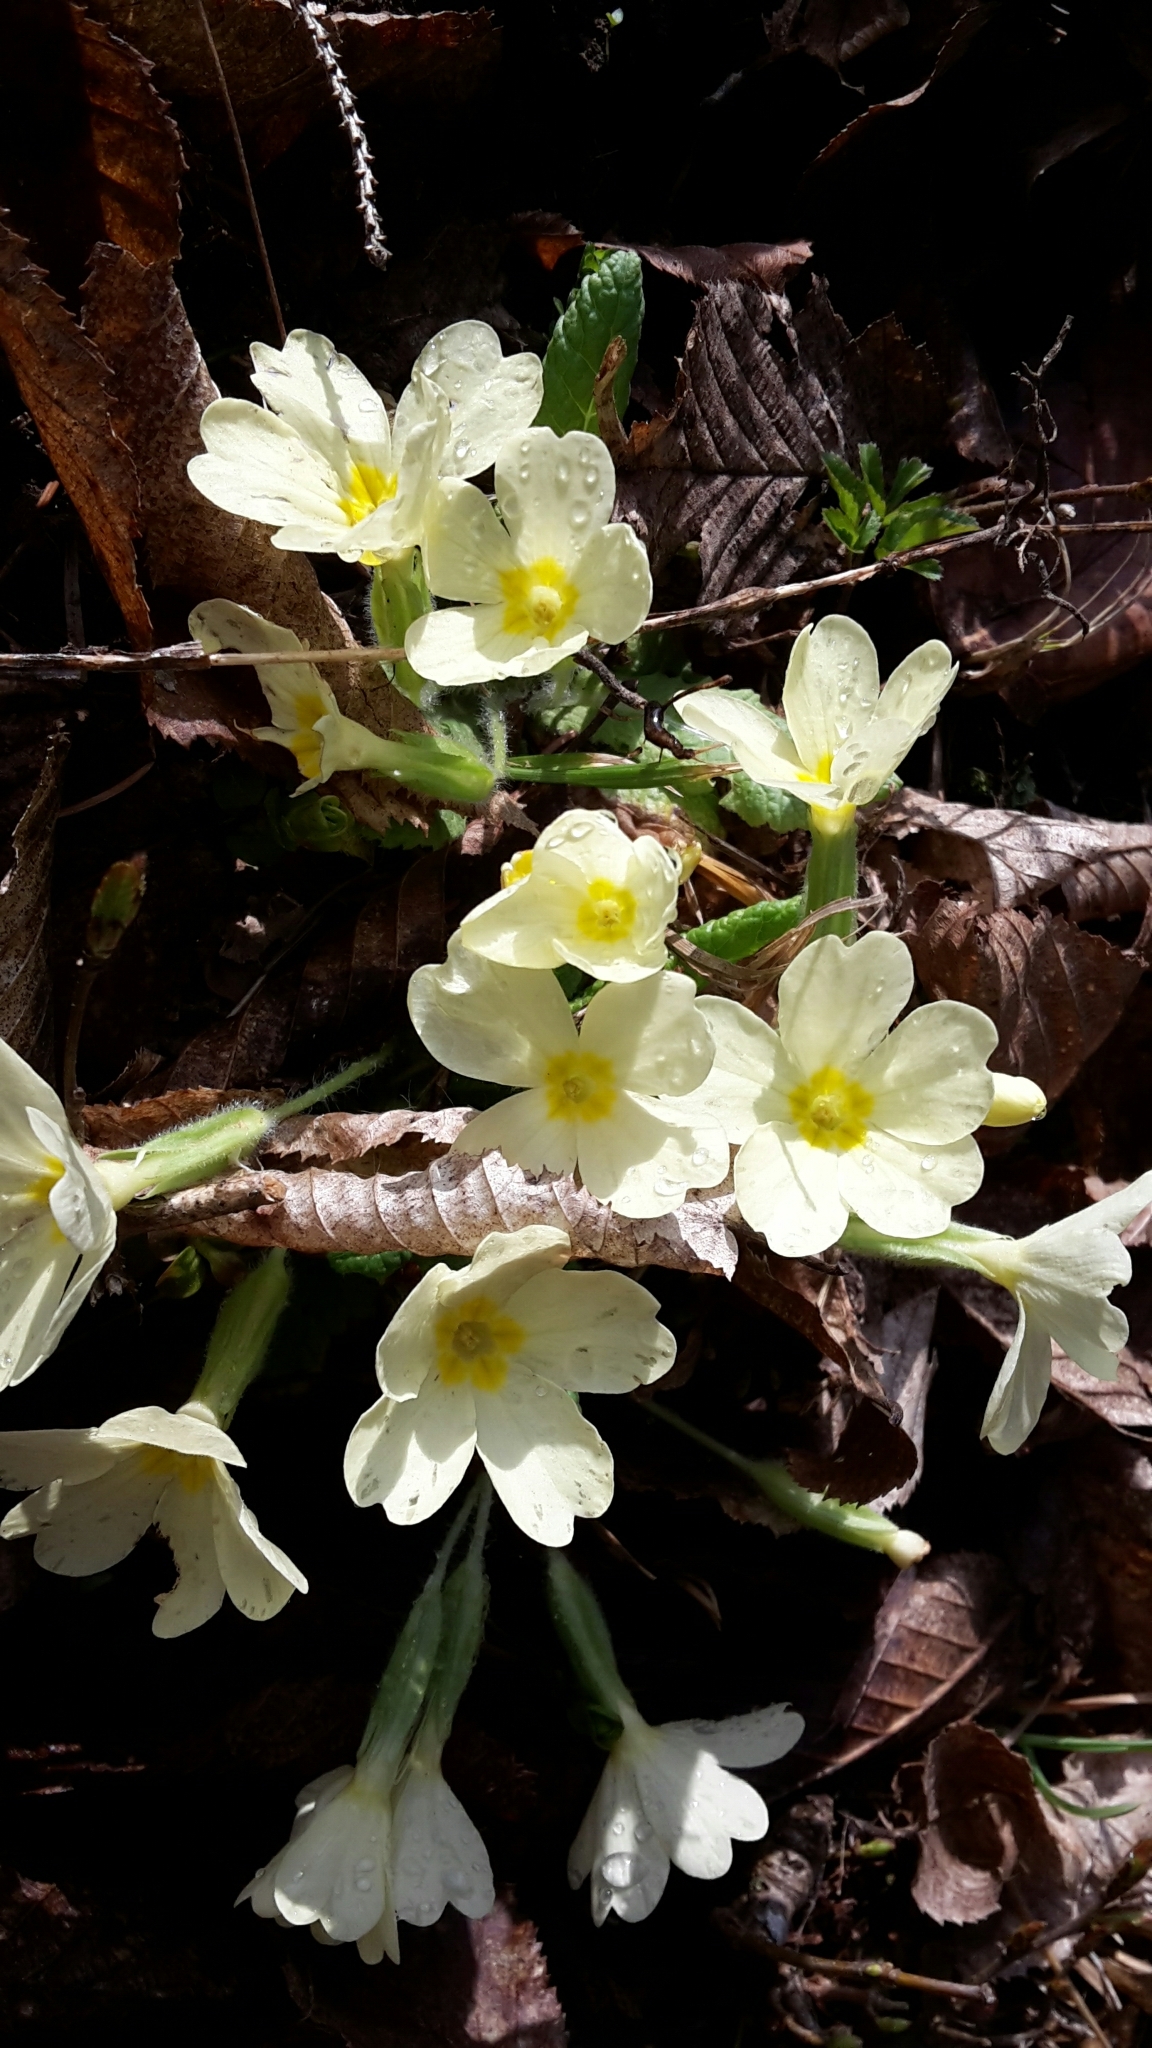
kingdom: Plantae
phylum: Tracheophyta
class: Magnoliopsida
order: Ericales
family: Primulaceae
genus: Primula
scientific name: Primula vulgaris
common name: Primrose
